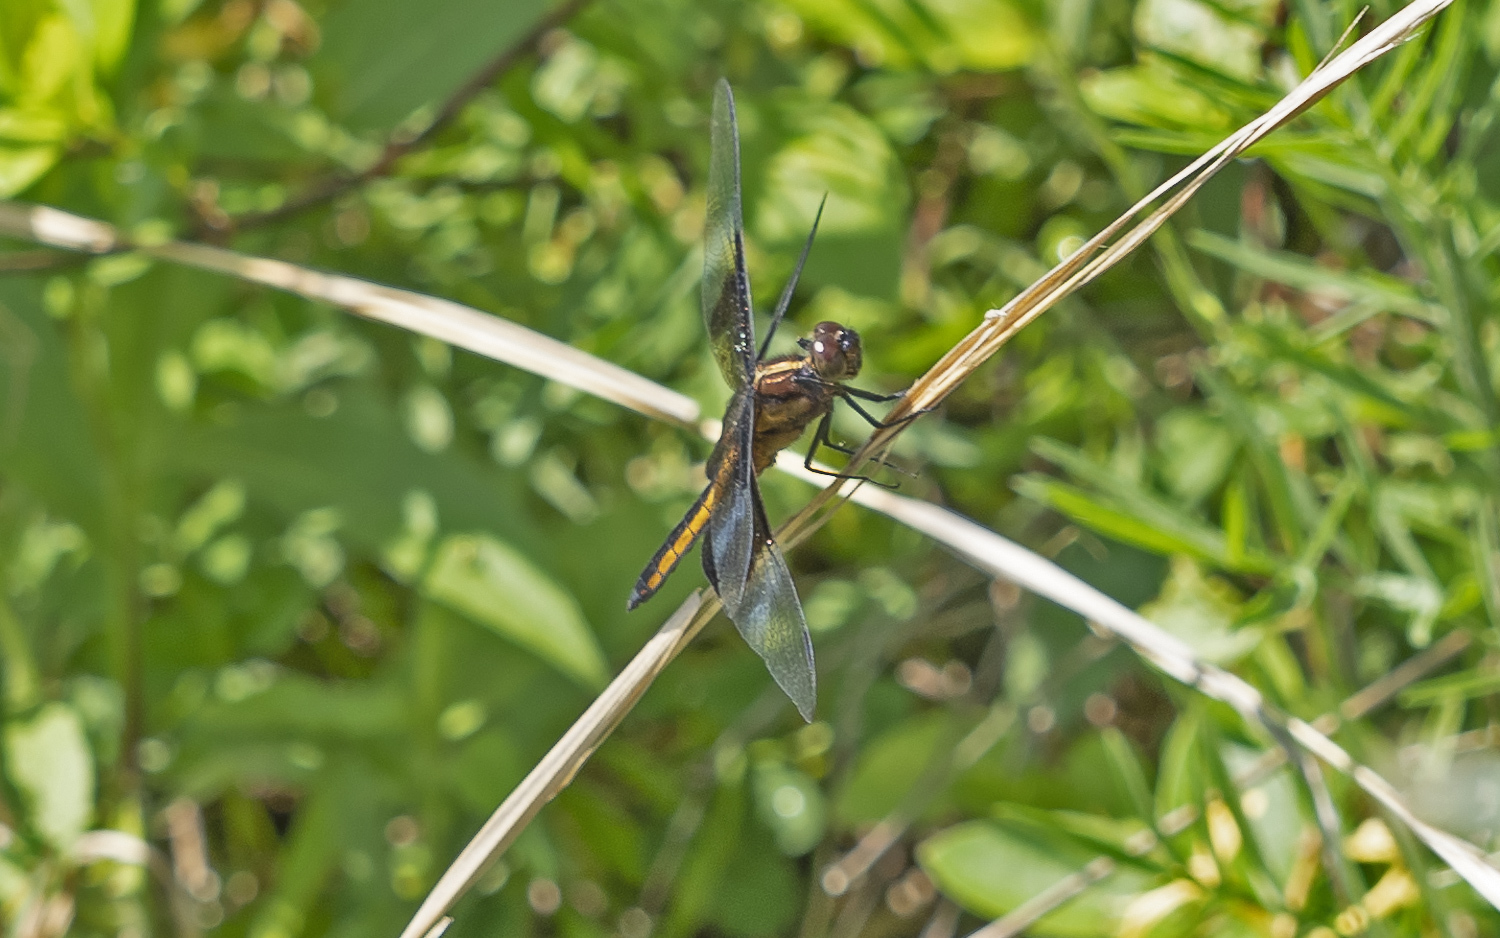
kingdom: Animalia
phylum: Arthropoda
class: Insecta
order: Odonata
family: Libellulidae
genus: Libellula
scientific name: Libellula luctuosa
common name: Widow skimmer
